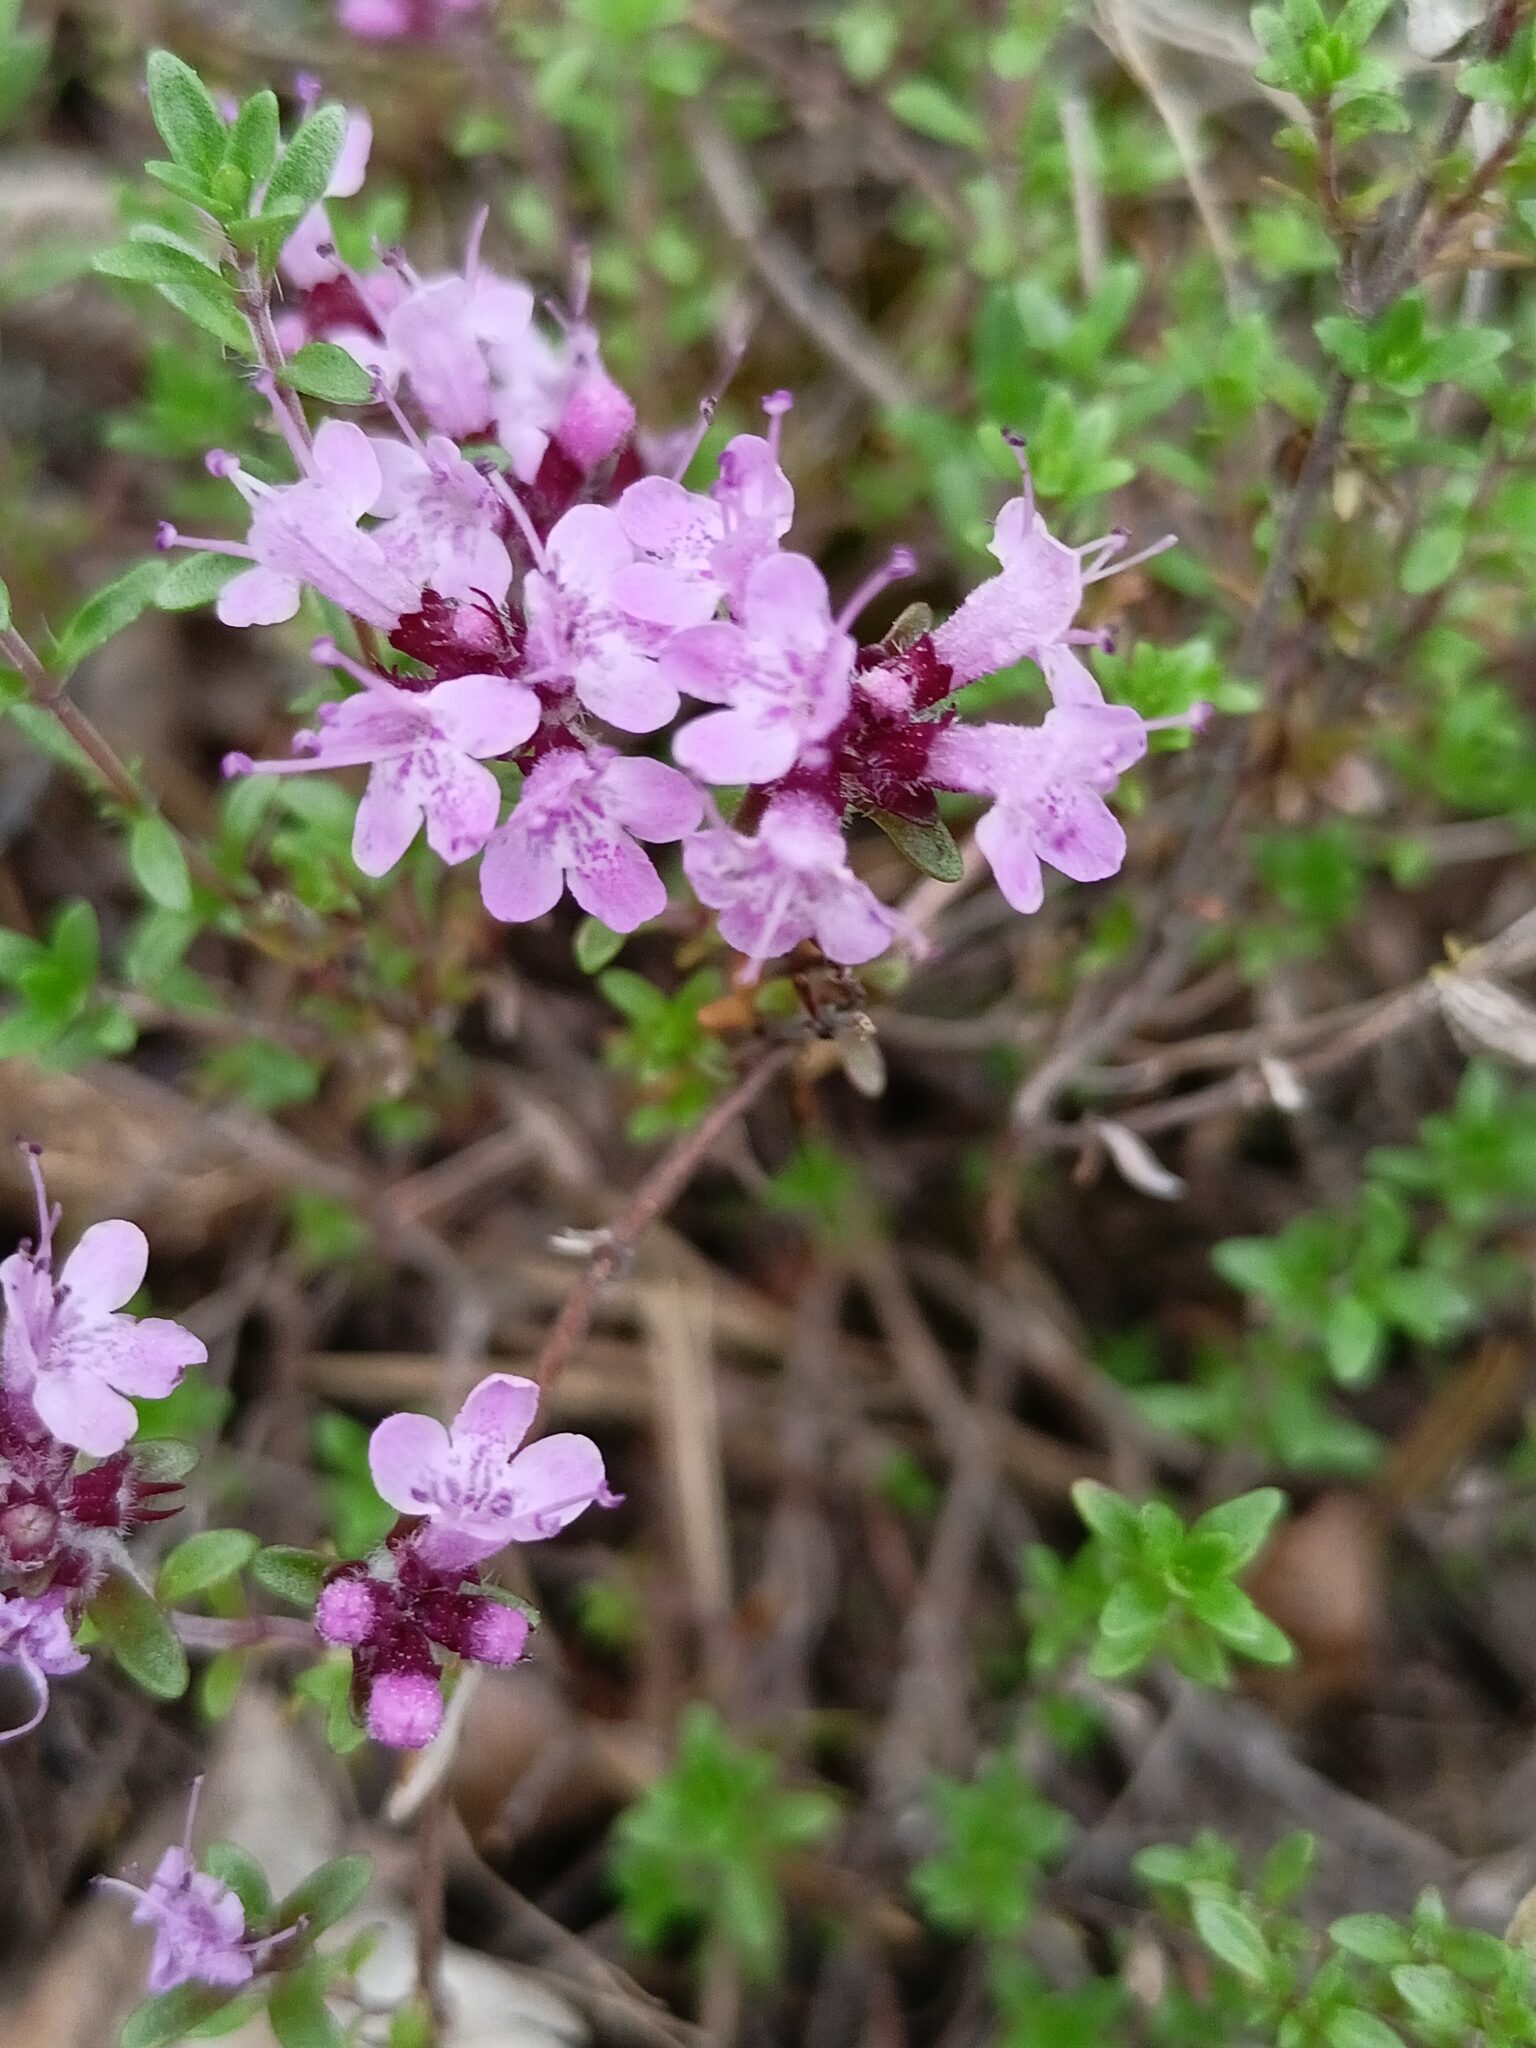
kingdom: Plantae
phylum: Tracheophyta
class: Magnoliopsida
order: Lamiales
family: Lamiaceae
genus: Thymus
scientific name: Thymus serpyllum
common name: Breckland thyme
